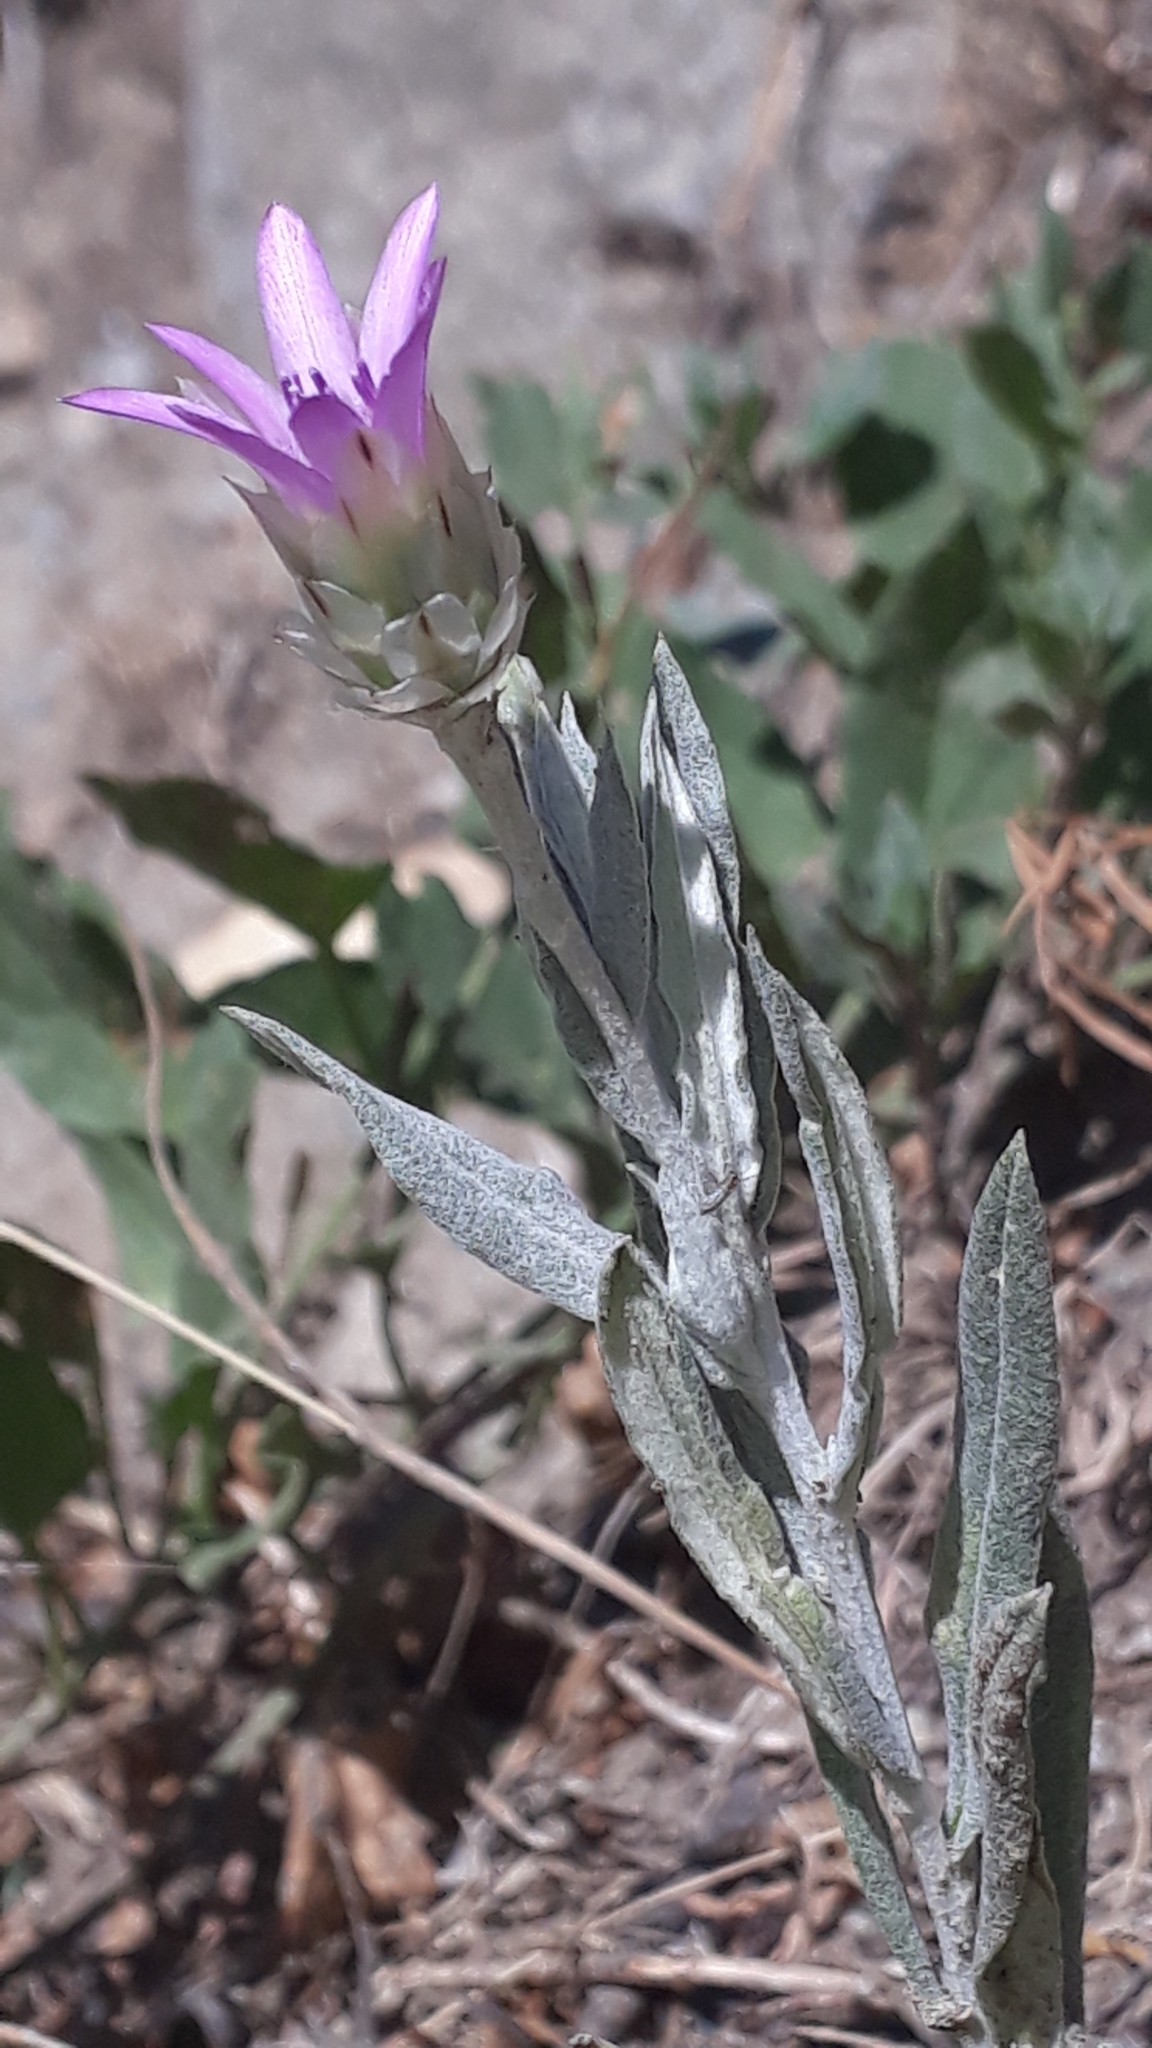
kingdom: Plantae
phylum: Tracheophyta
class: Magnoliopsida
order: Asterales
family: Asteraceae
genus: Xeranthemum
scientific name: Xeranthemum inapertum
